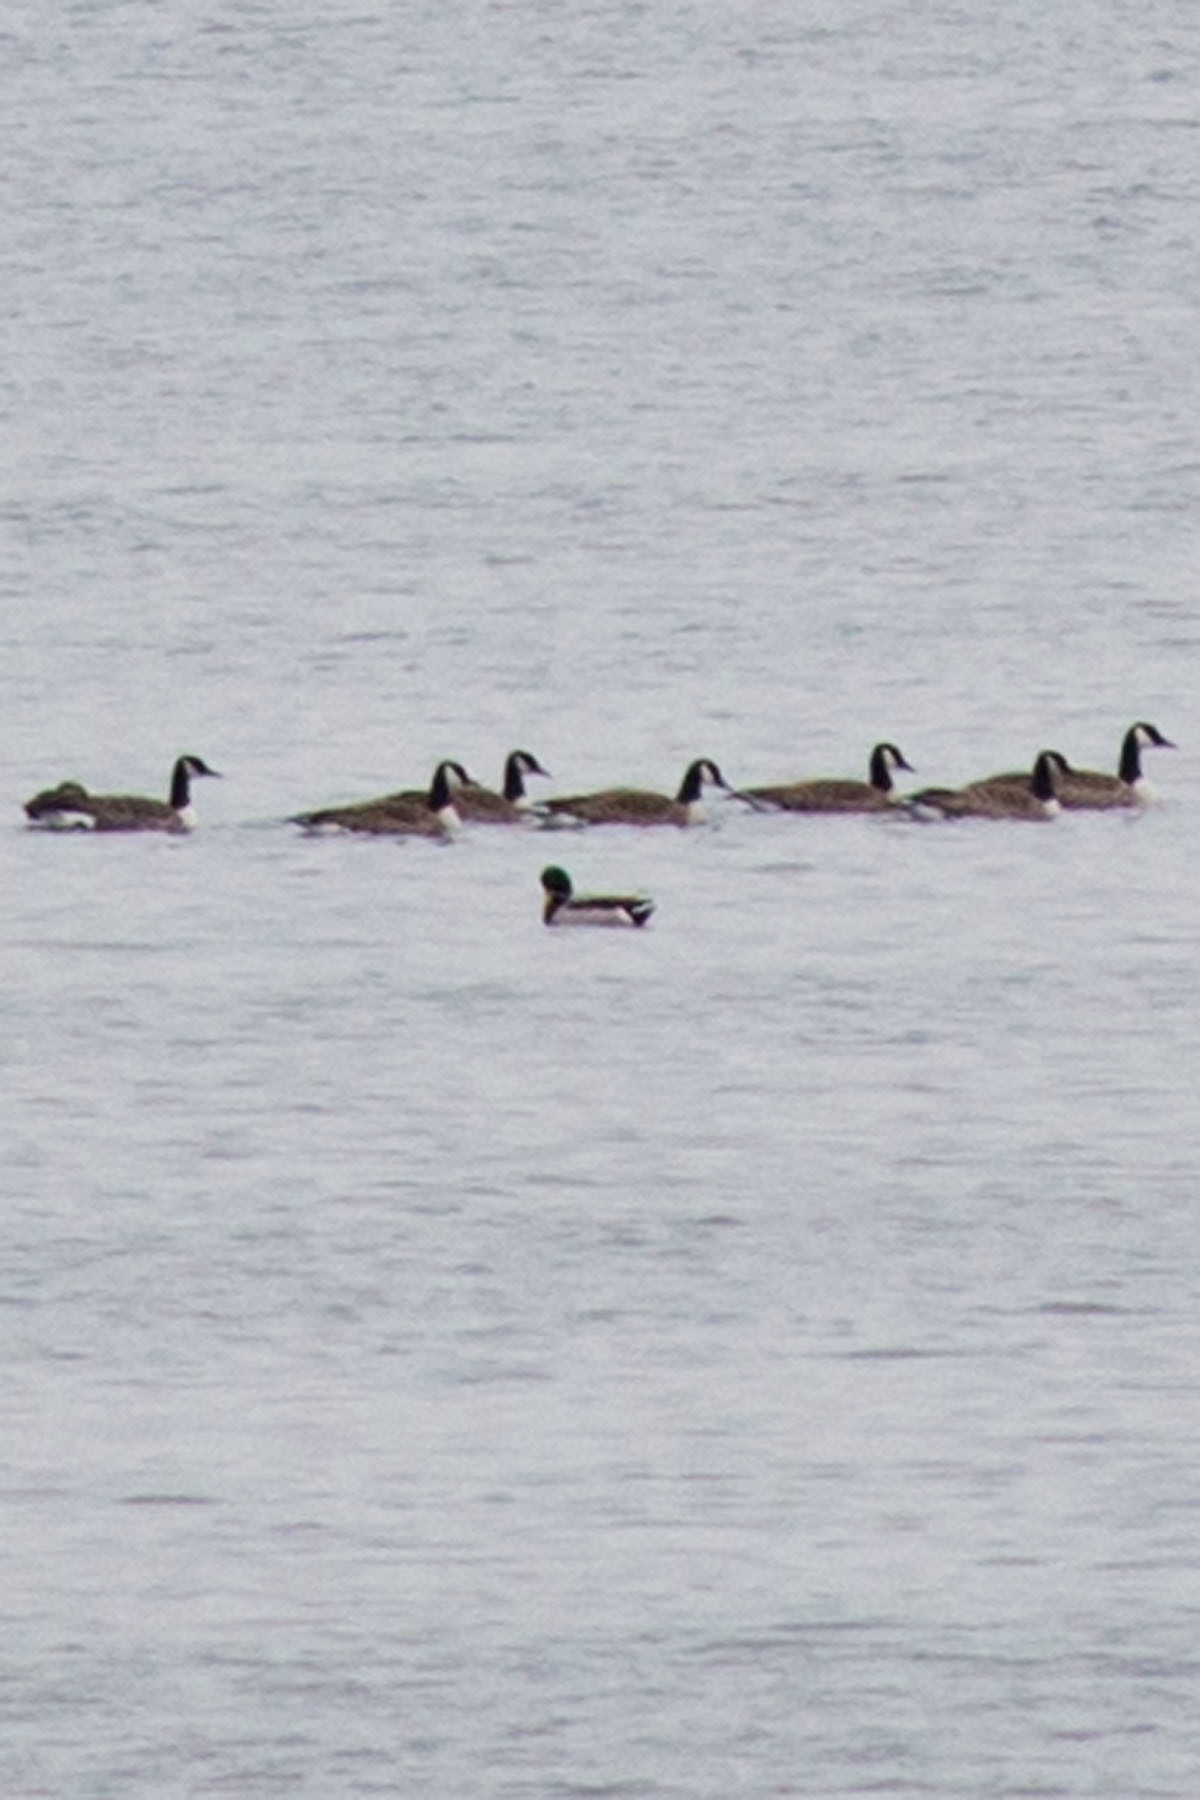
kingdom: Animalia
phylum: Chordata
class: Aves
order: Anseriformes
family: Anatidae
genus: Anas
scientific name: Anas platyrhynchos
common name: Mallard
